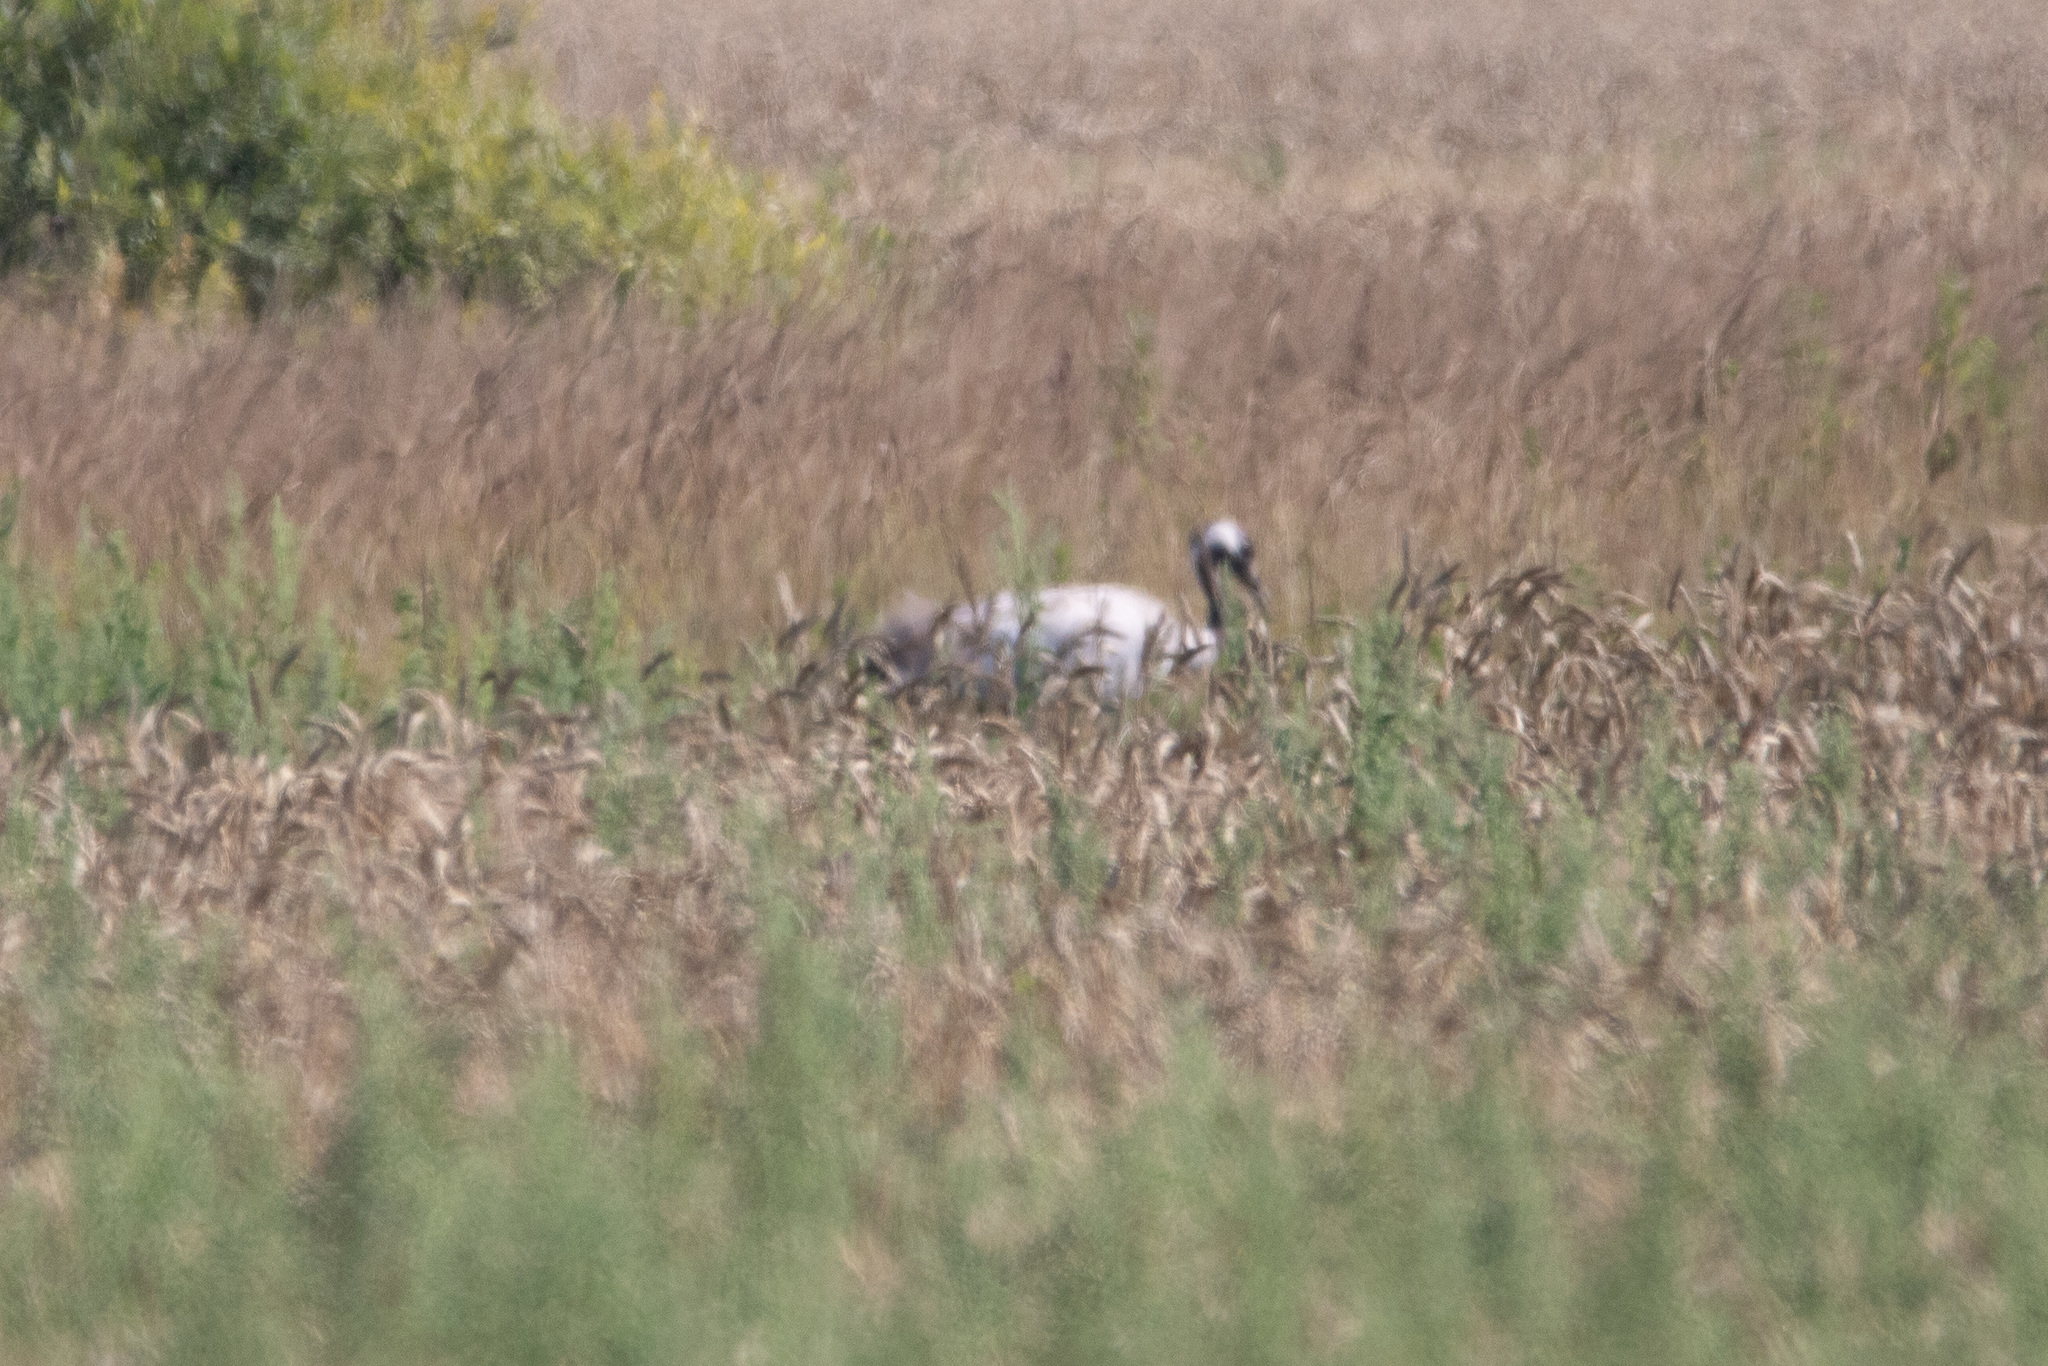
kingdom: Animalia
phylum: Chordata
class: Aves
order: Gruiformes
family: Gruidae
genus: Grus
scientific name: Grus grus
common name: Common crane
